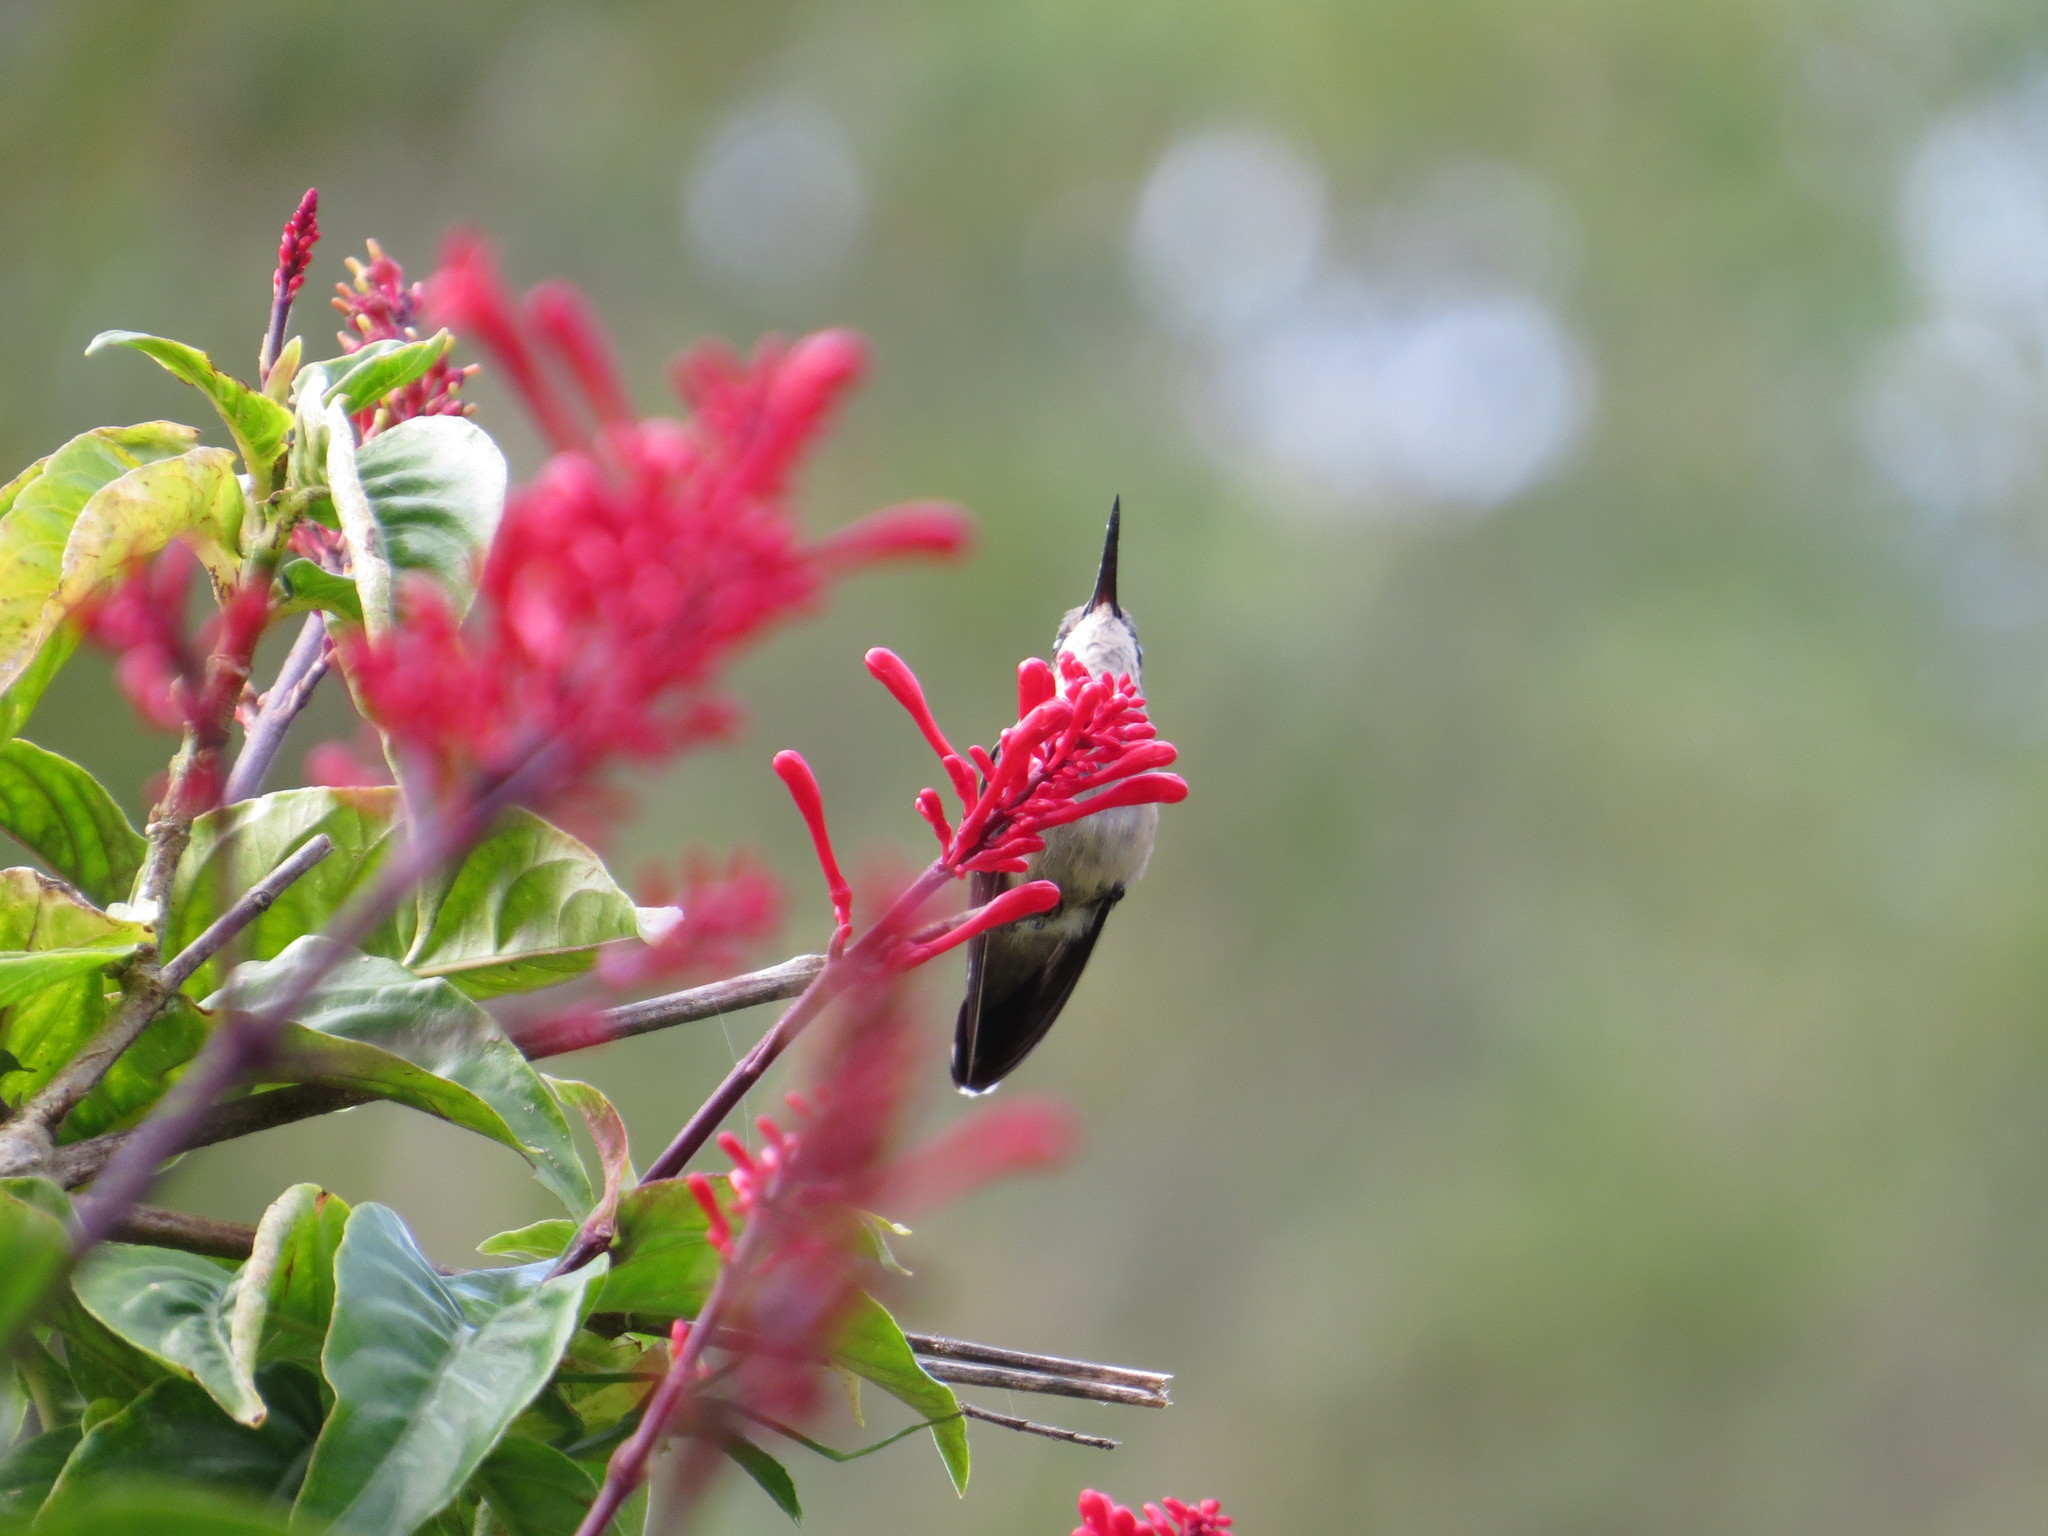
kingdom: Animalia
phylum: Chordata
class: Aves
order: Apodiformes
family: Trochilidae
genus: Chlorostilbon
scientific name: Chlorostilbon lucidus
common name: Glittering-bellied emerald
